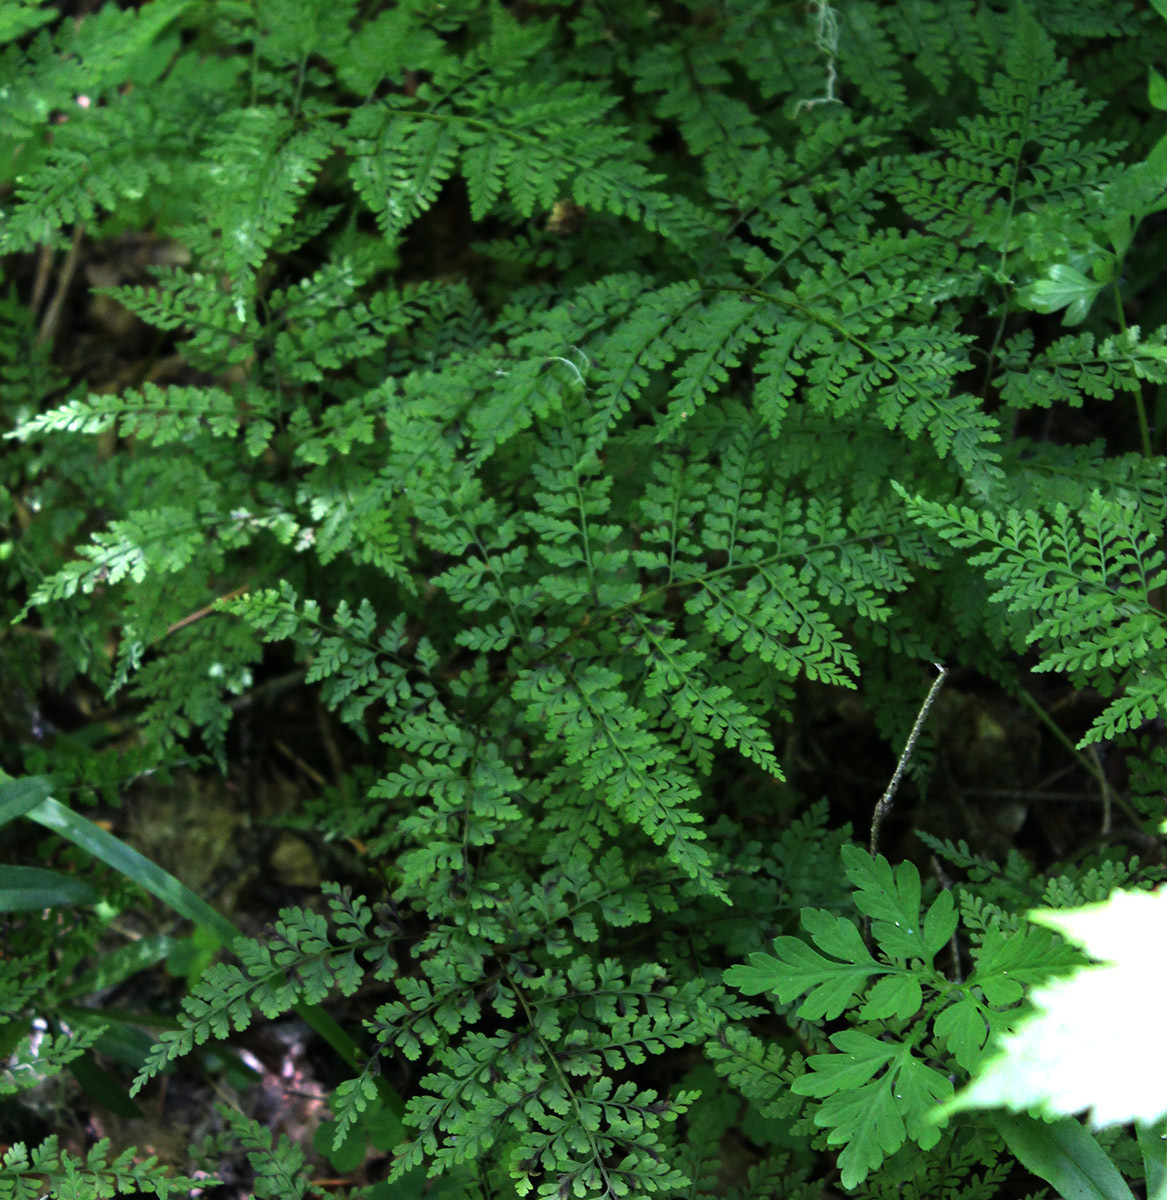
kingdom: Plantae
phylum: Tracheophyta
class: Polypodiopsida
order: Polypodiales
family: Cystopteridaceae
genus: Cystopteris
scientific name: Cystopteris sudetica
